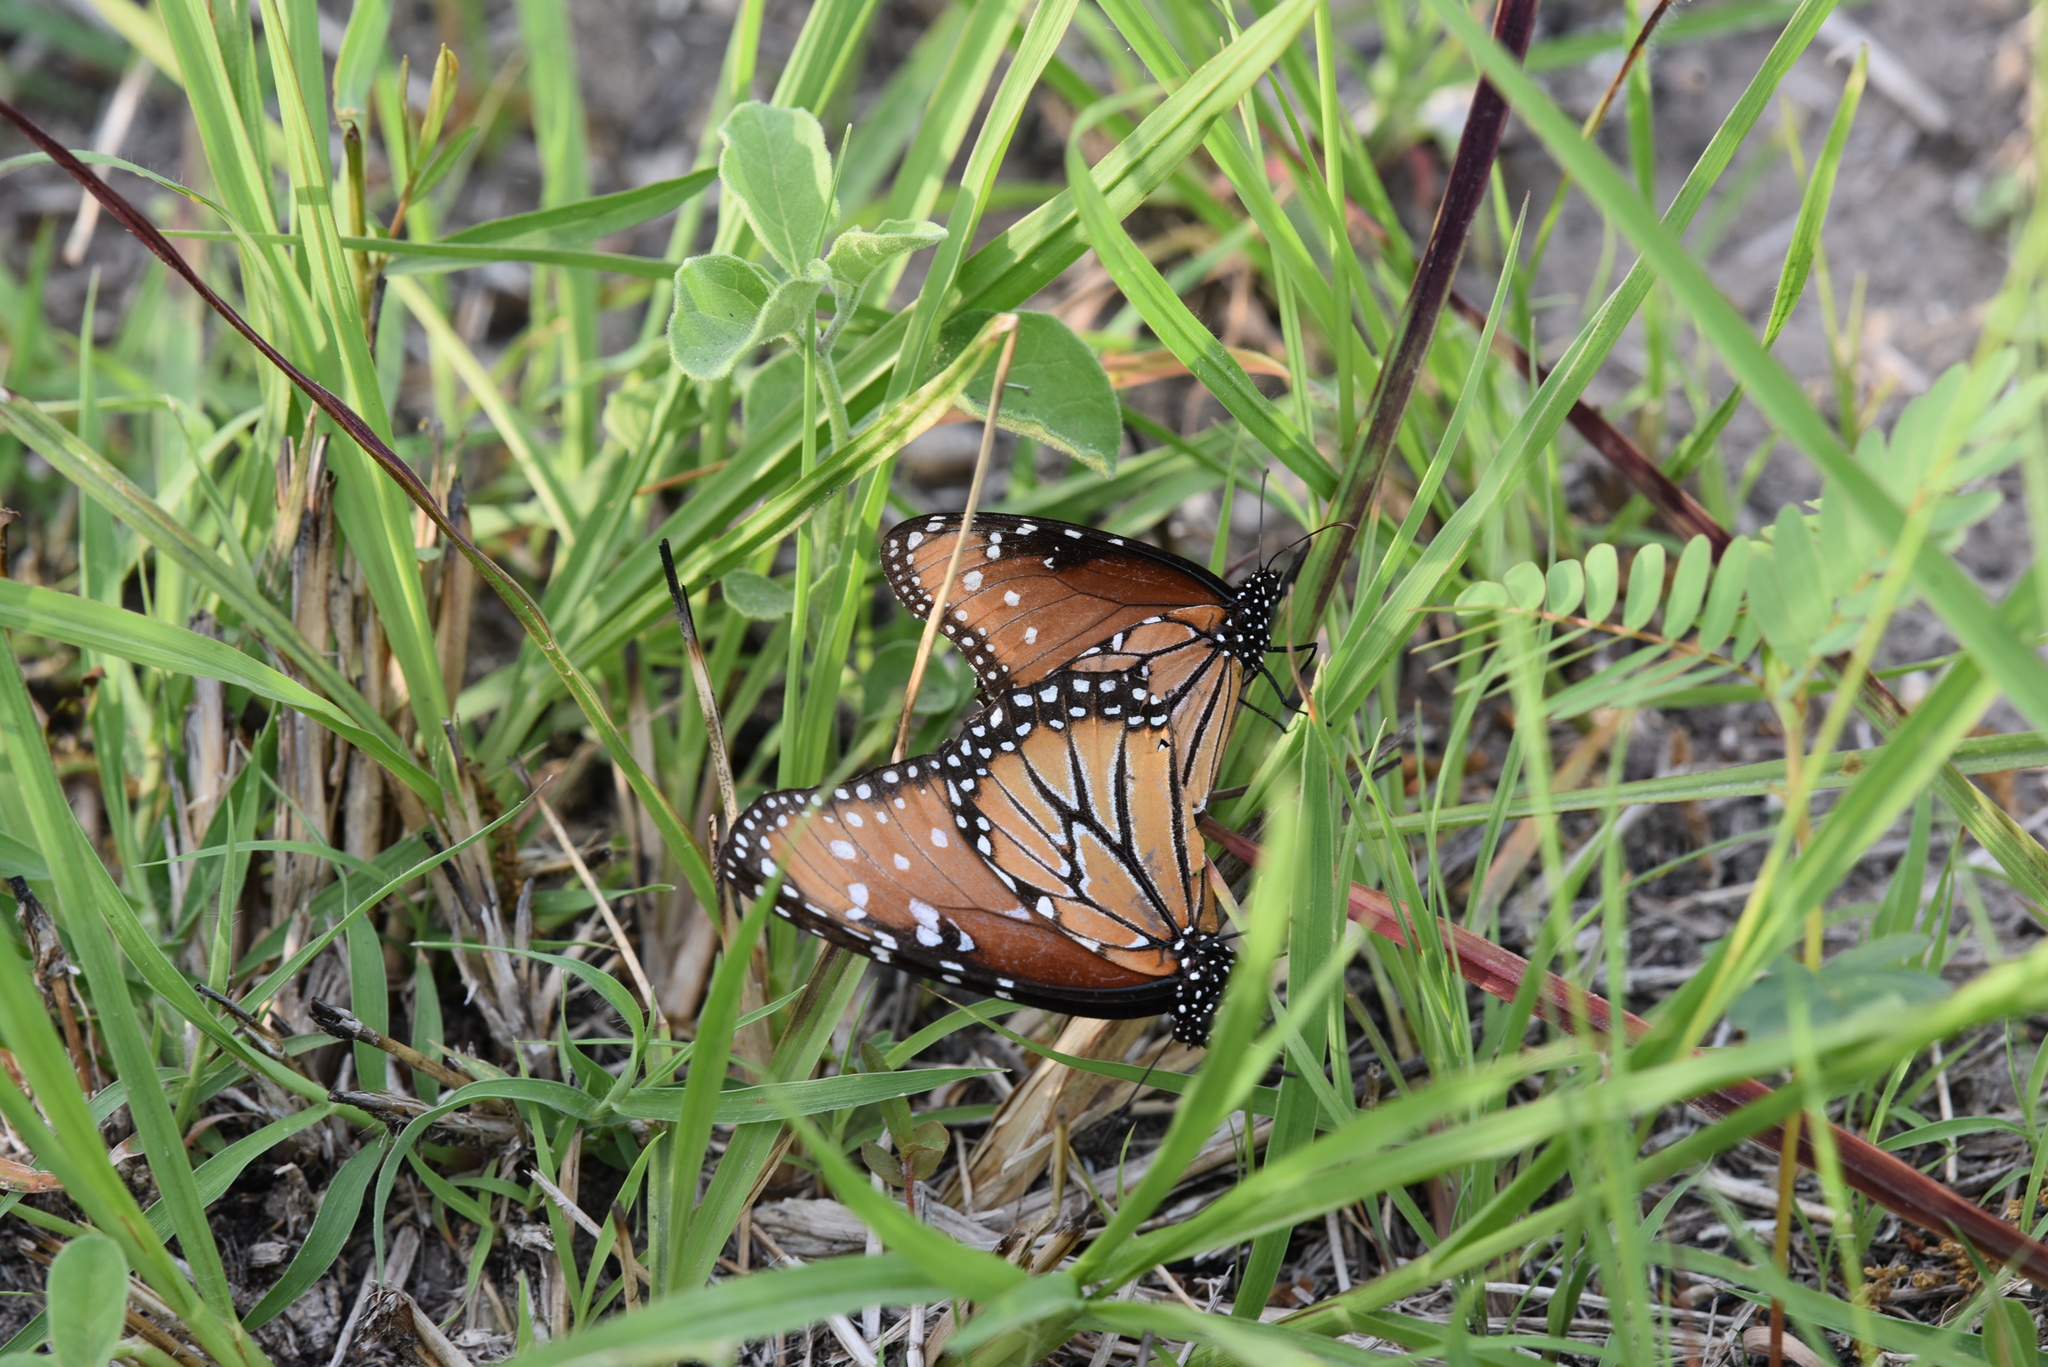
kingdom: Animalia
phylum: Arthropoda
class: Insecta
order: Lepidoptera
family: Nymphalidae
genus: Danaus
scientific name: Danaus gilippus
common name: Queen
